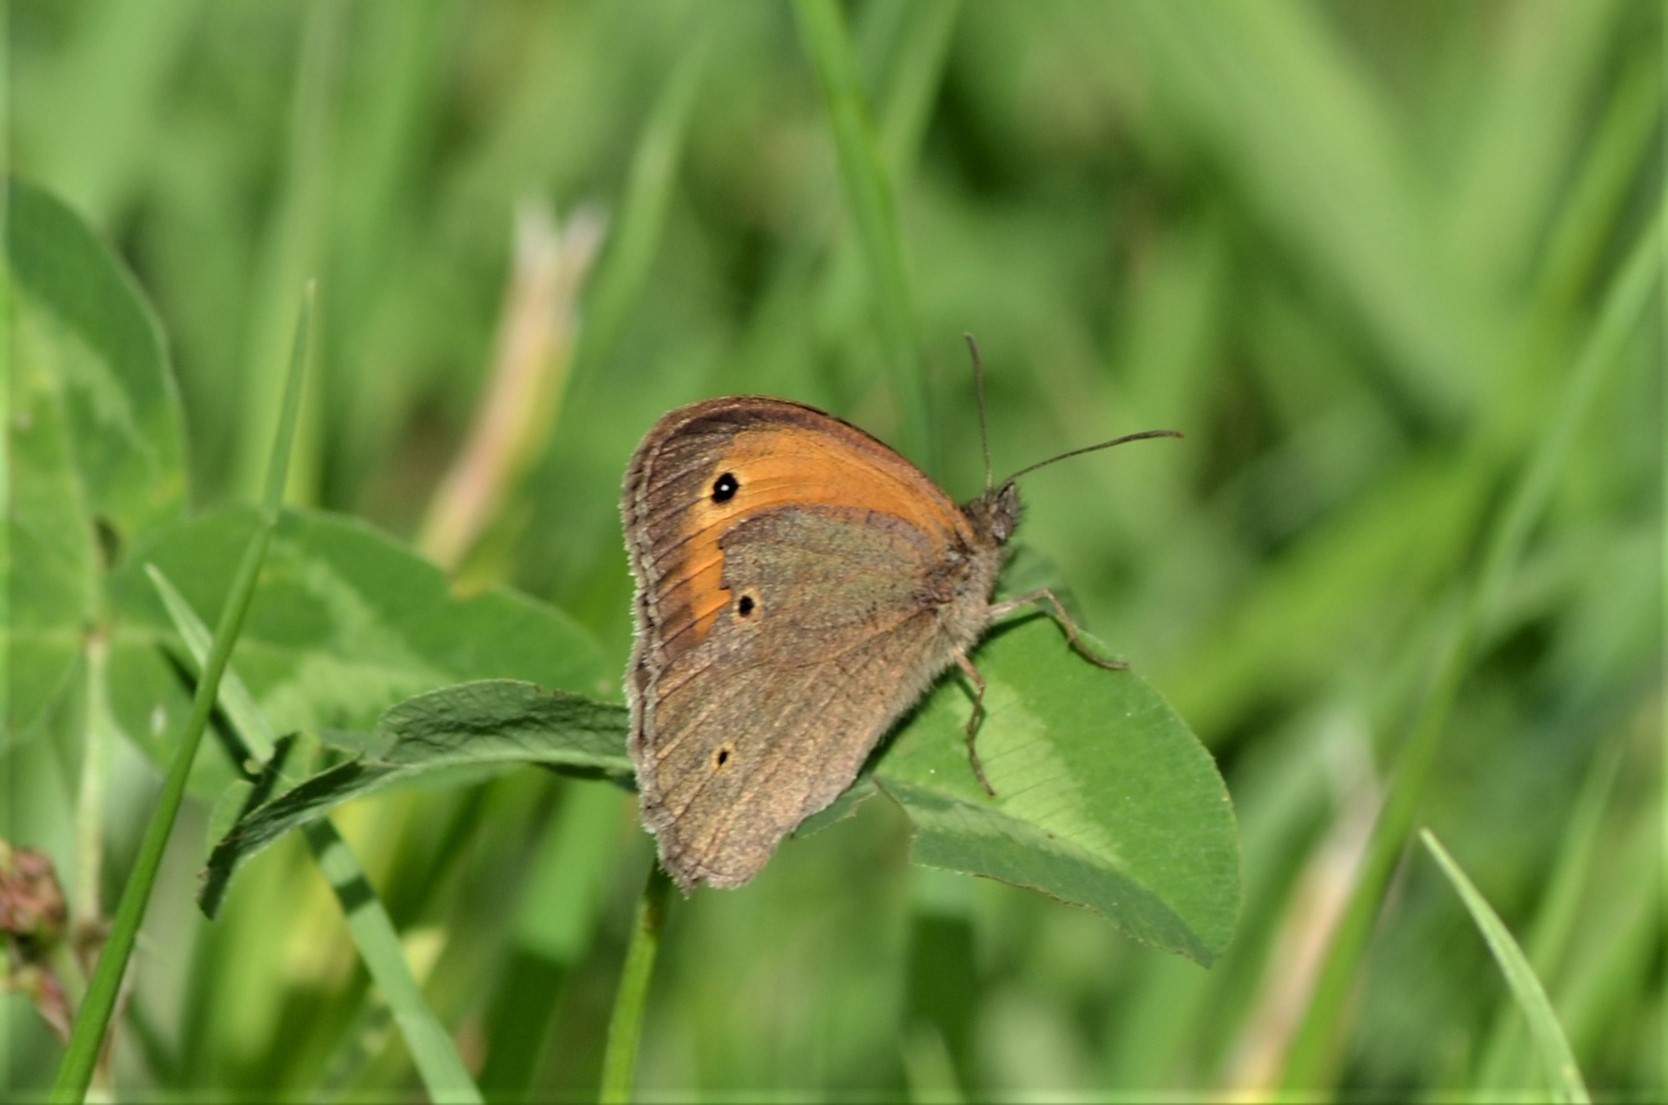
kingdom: Animalia
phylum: Arthropoda
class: Insecta
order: Lepidoptera
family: Nymphalidae
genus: Maniola
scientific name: Maniola jurtina
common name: Meadow brown
